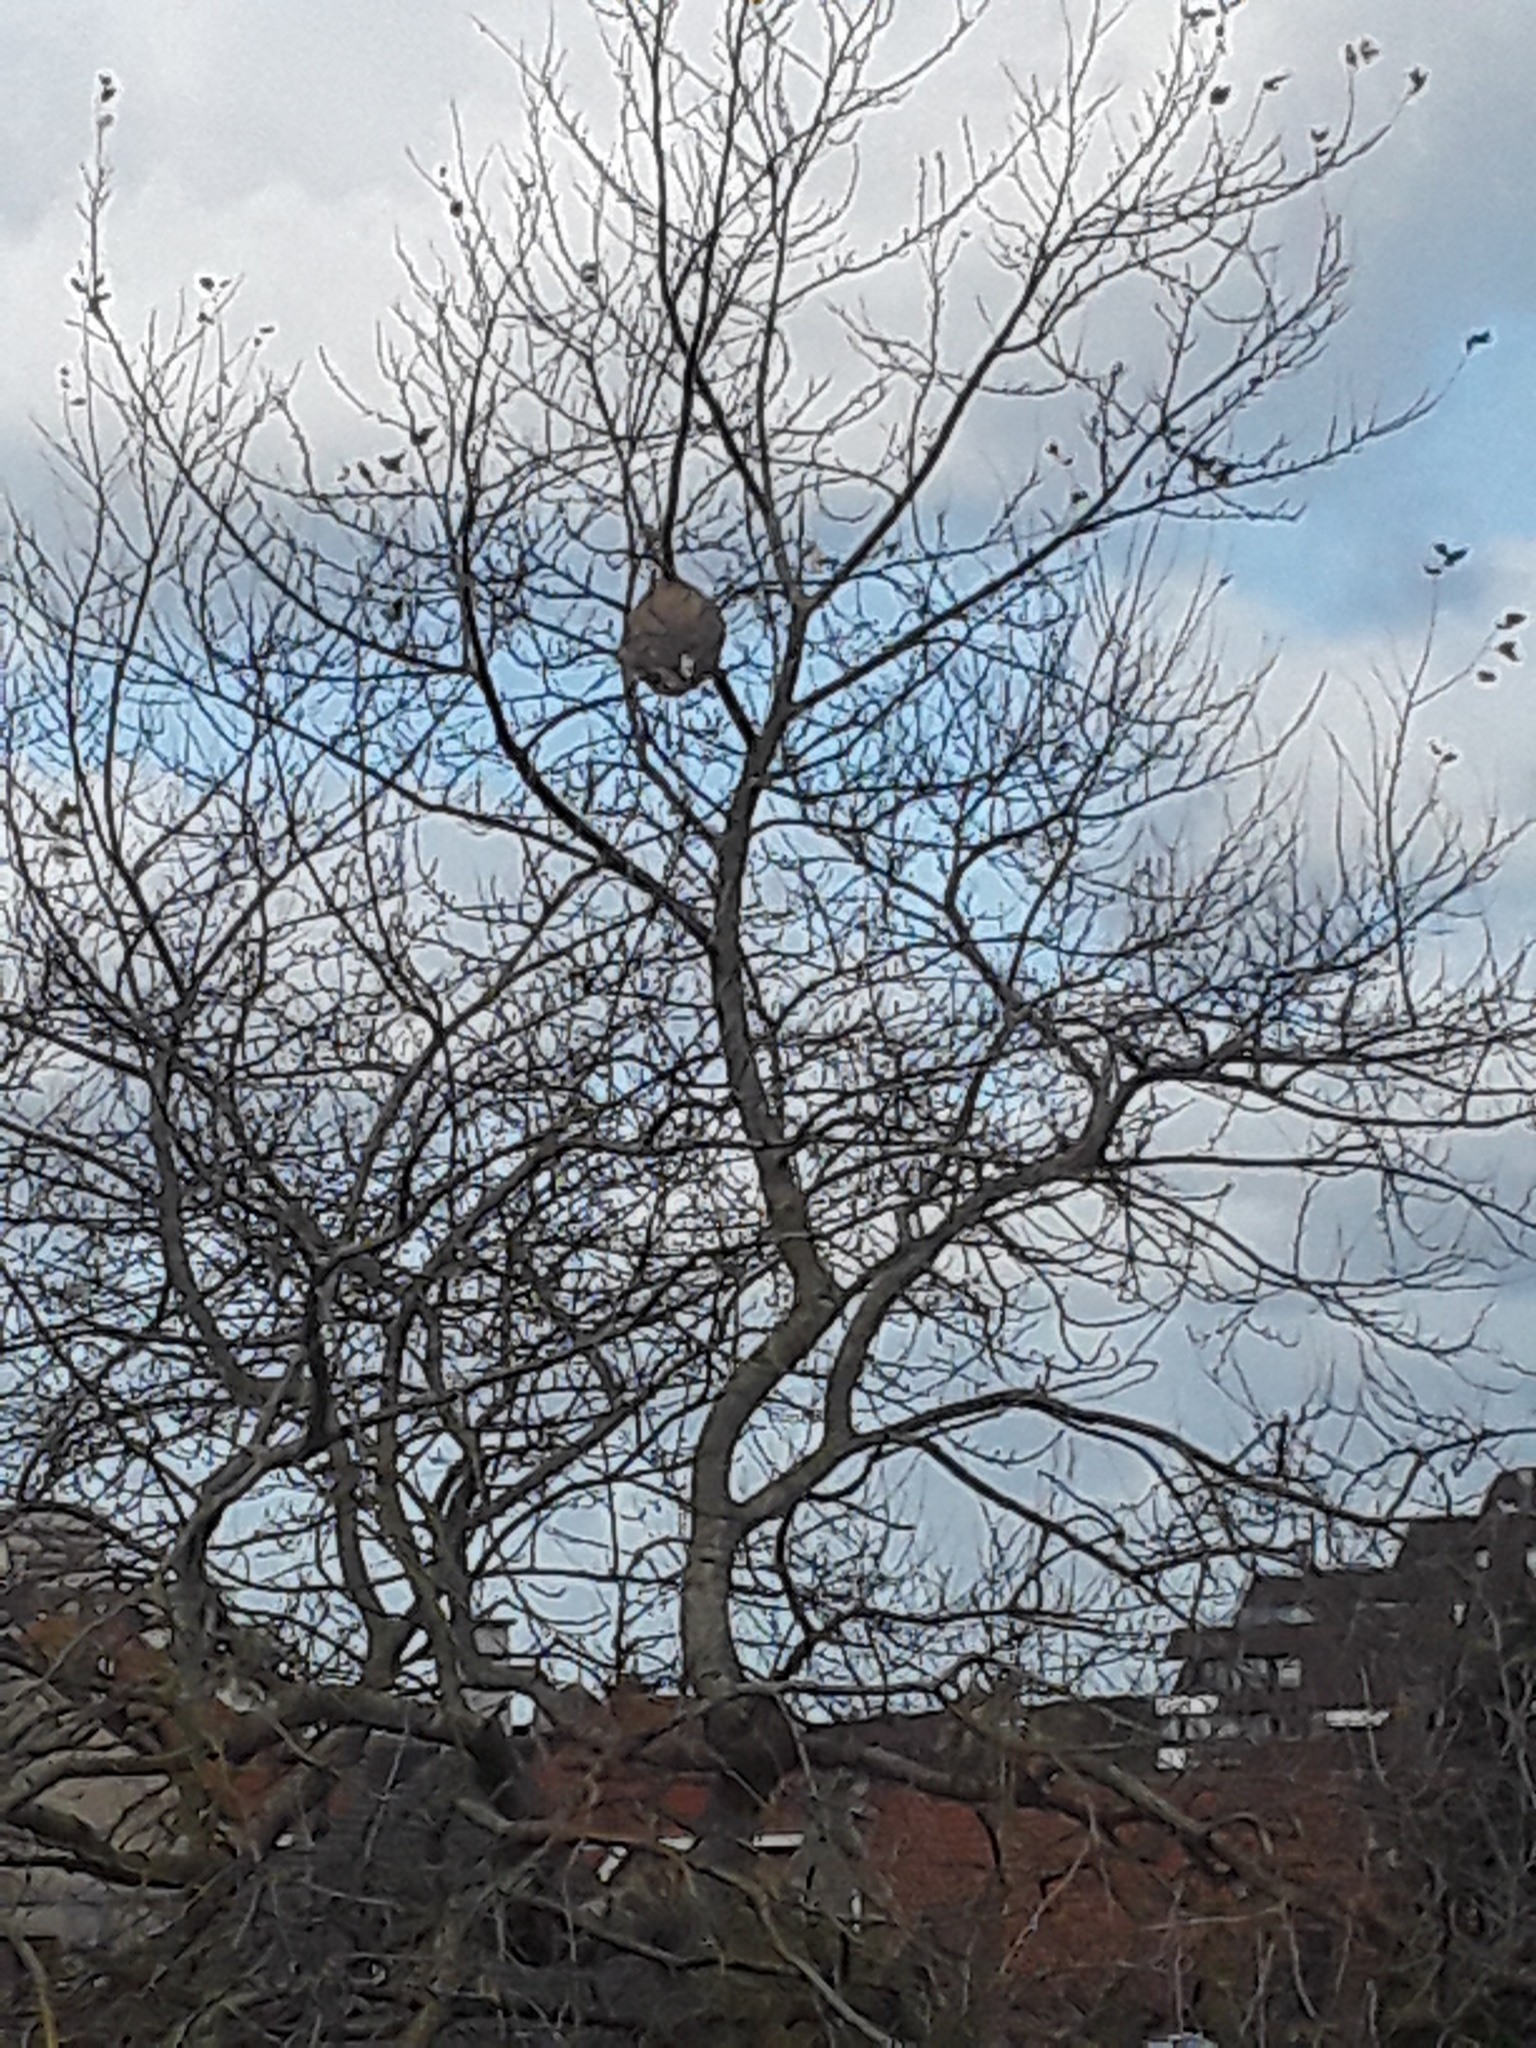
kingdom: Animalia
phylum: Arthropoda
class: Insecta
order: Hymenoptera
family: Vespidae
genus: Vespa
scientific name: Vespa velutina
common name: Asian hornet
